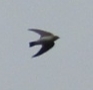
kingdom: Animalia
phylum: Chordata
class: Aves
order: Passeriformes
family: Hirundinidae
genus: Stelgidopteryx
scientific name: Stelgidopteryx serripennis
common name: Northern rough-winged swallow
